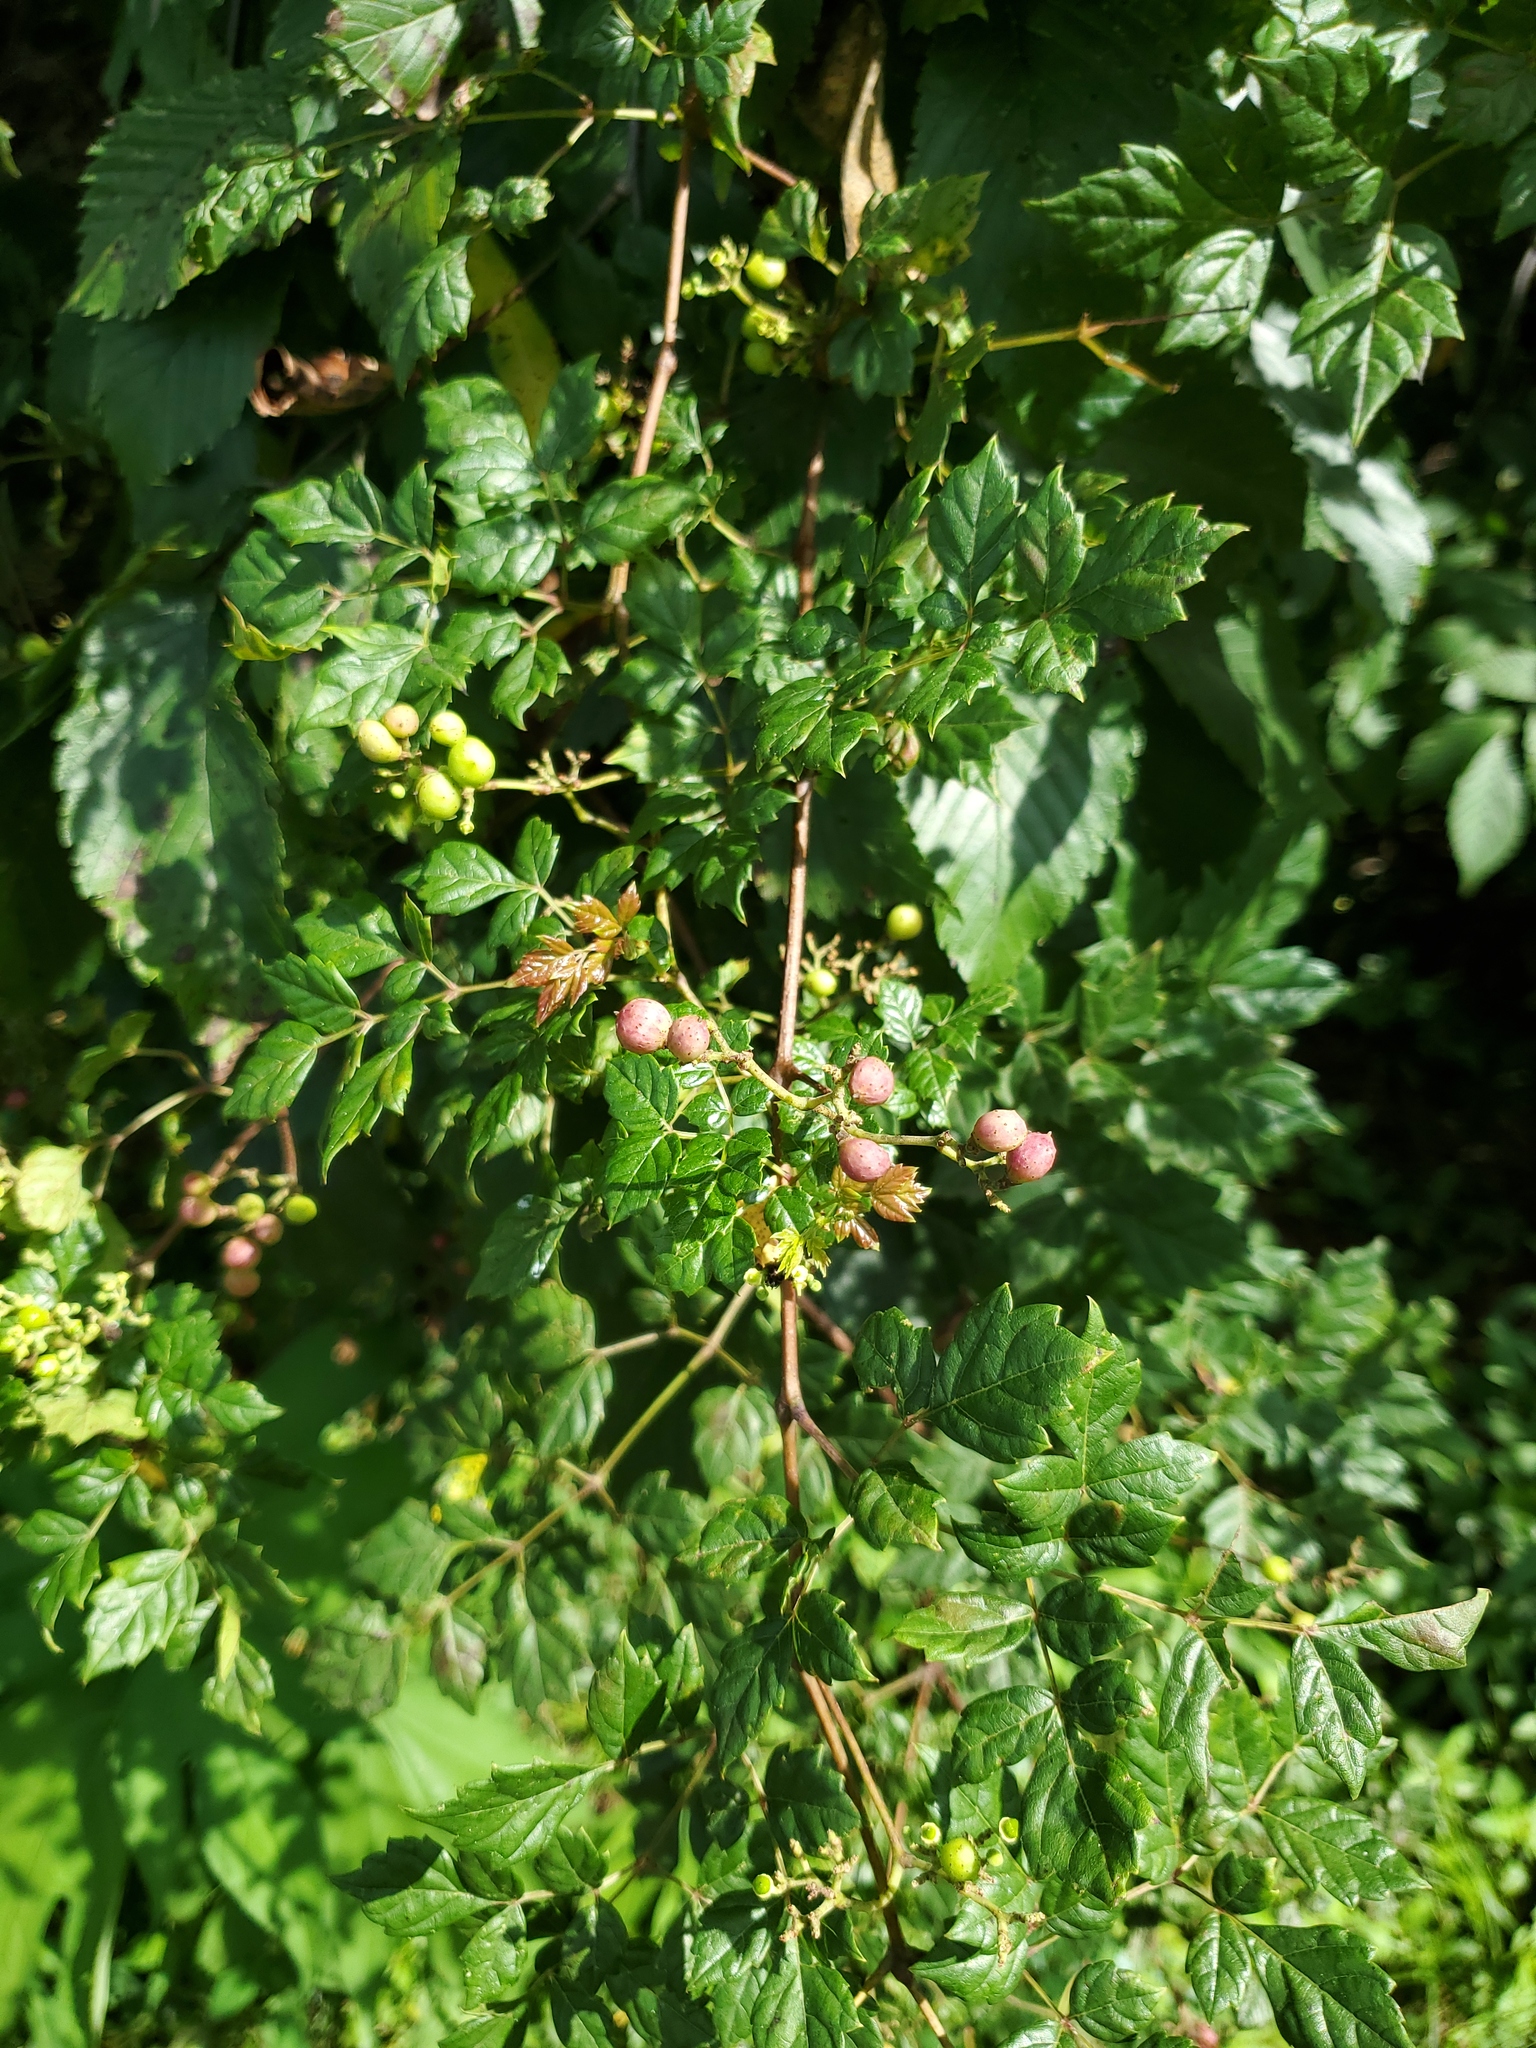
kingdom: Plantae
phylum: Tracheophyta
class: Magnoliopsida
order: Vitales
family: Vitaceae
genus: Nekemias
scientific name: Nekemias arborea
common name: Peppervine
